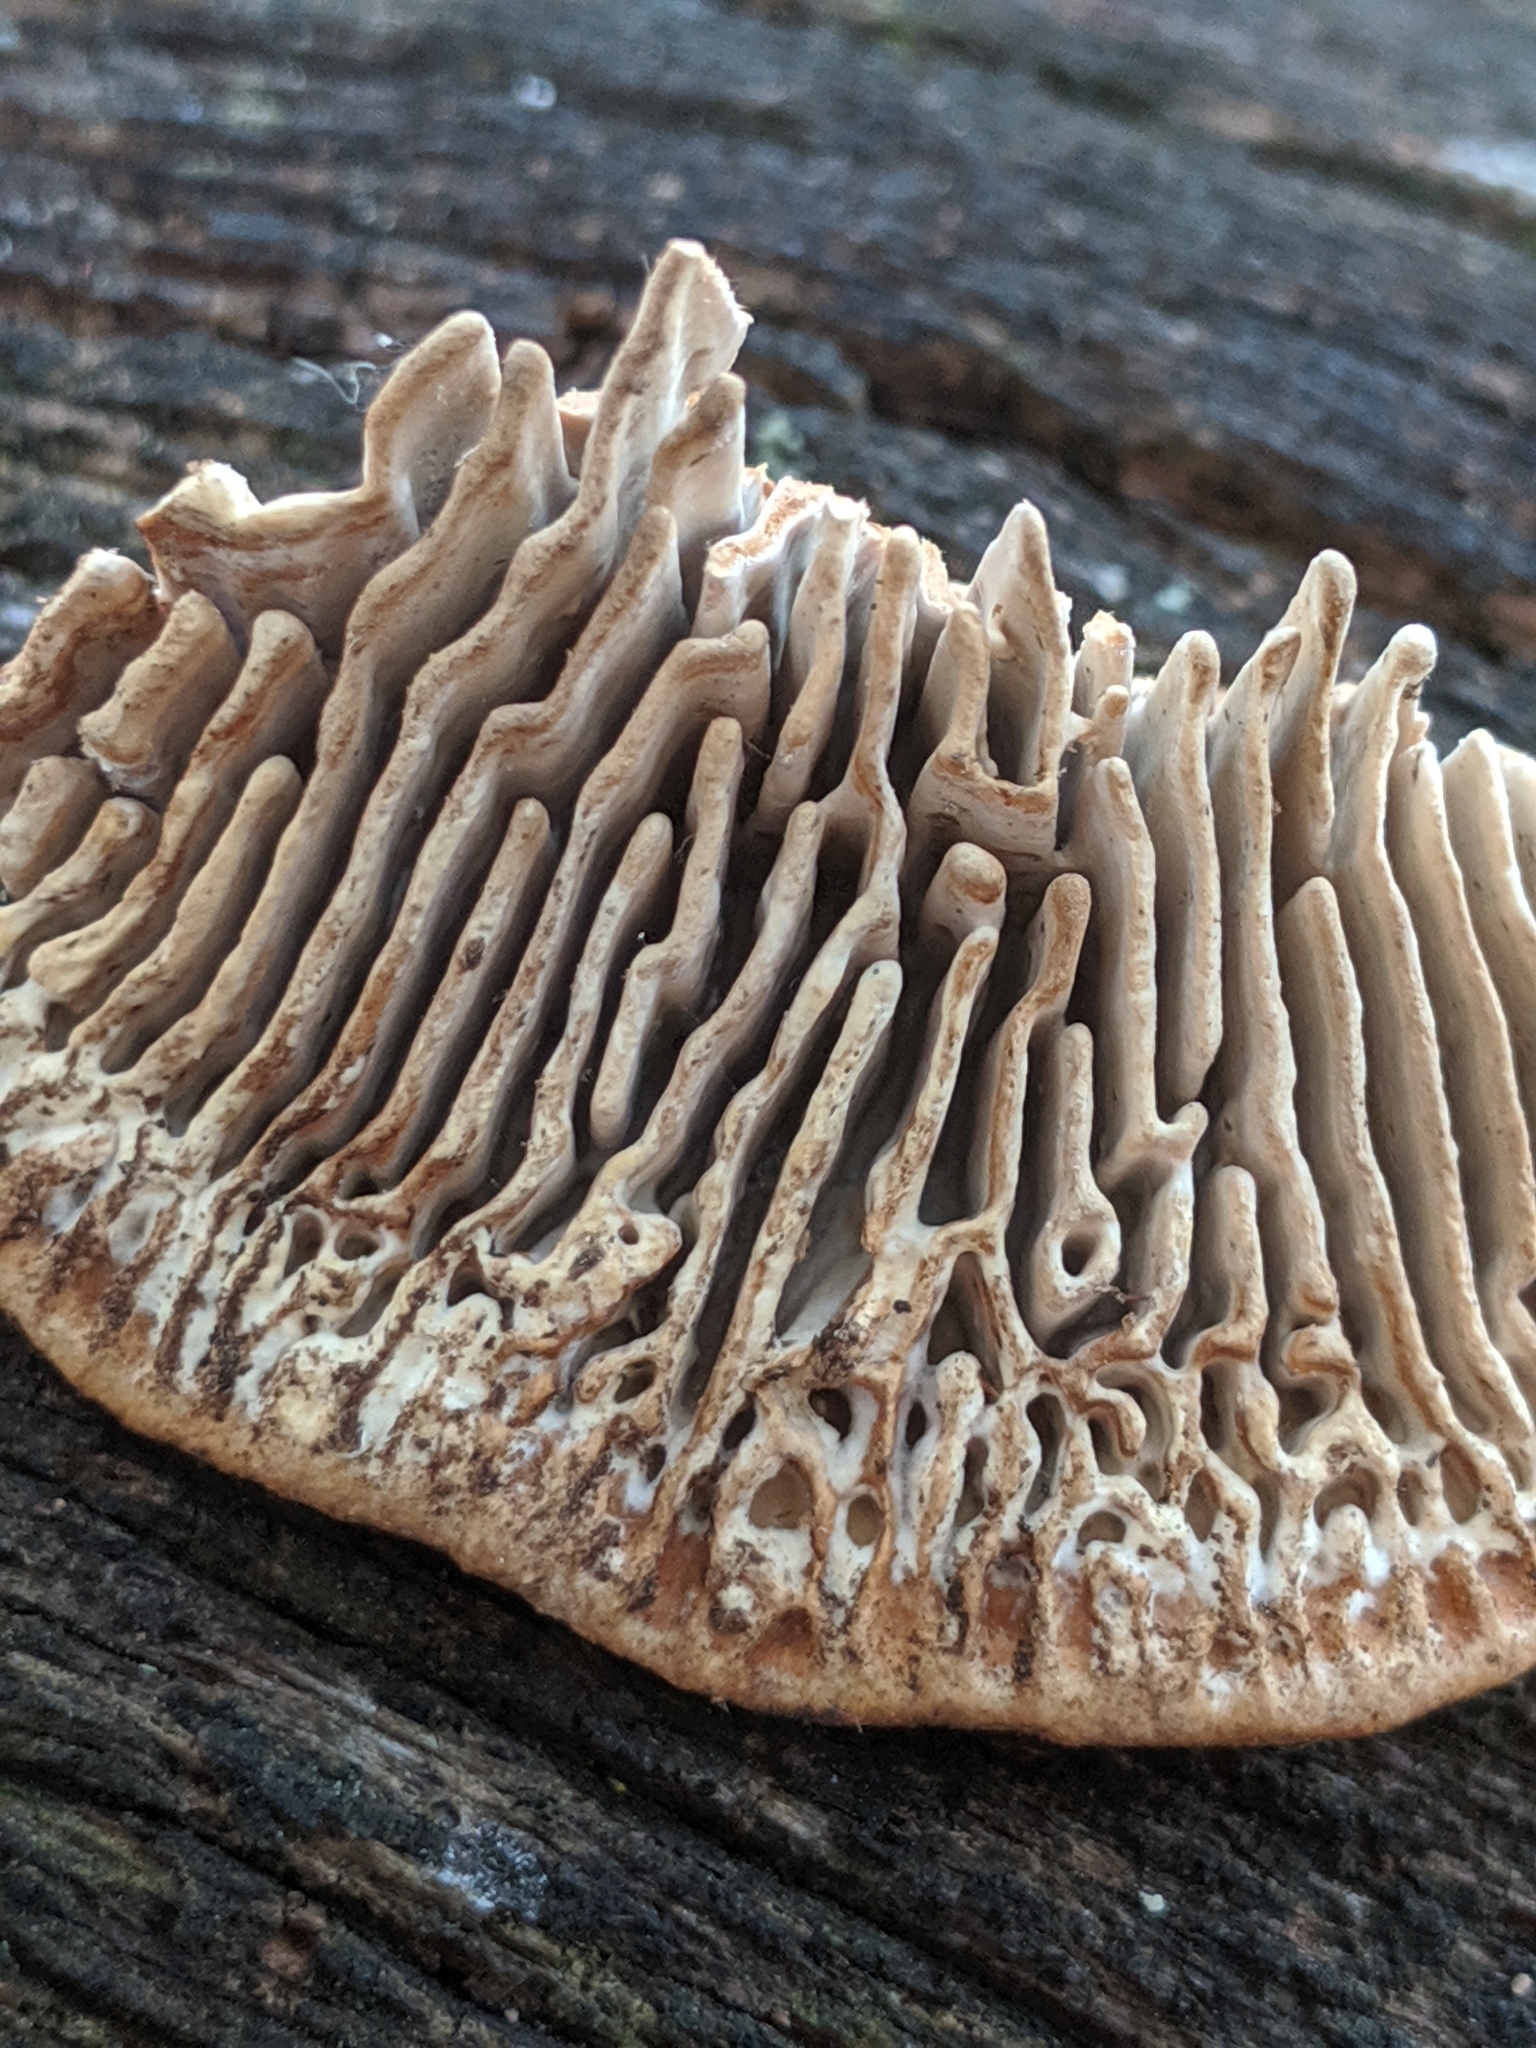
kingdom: Fungi
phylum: Basidiomycota
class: Agaricomycetes
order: Polyporales
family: Fomitopsidaceae
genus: Fomitopsis
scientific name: Fomitopsis
